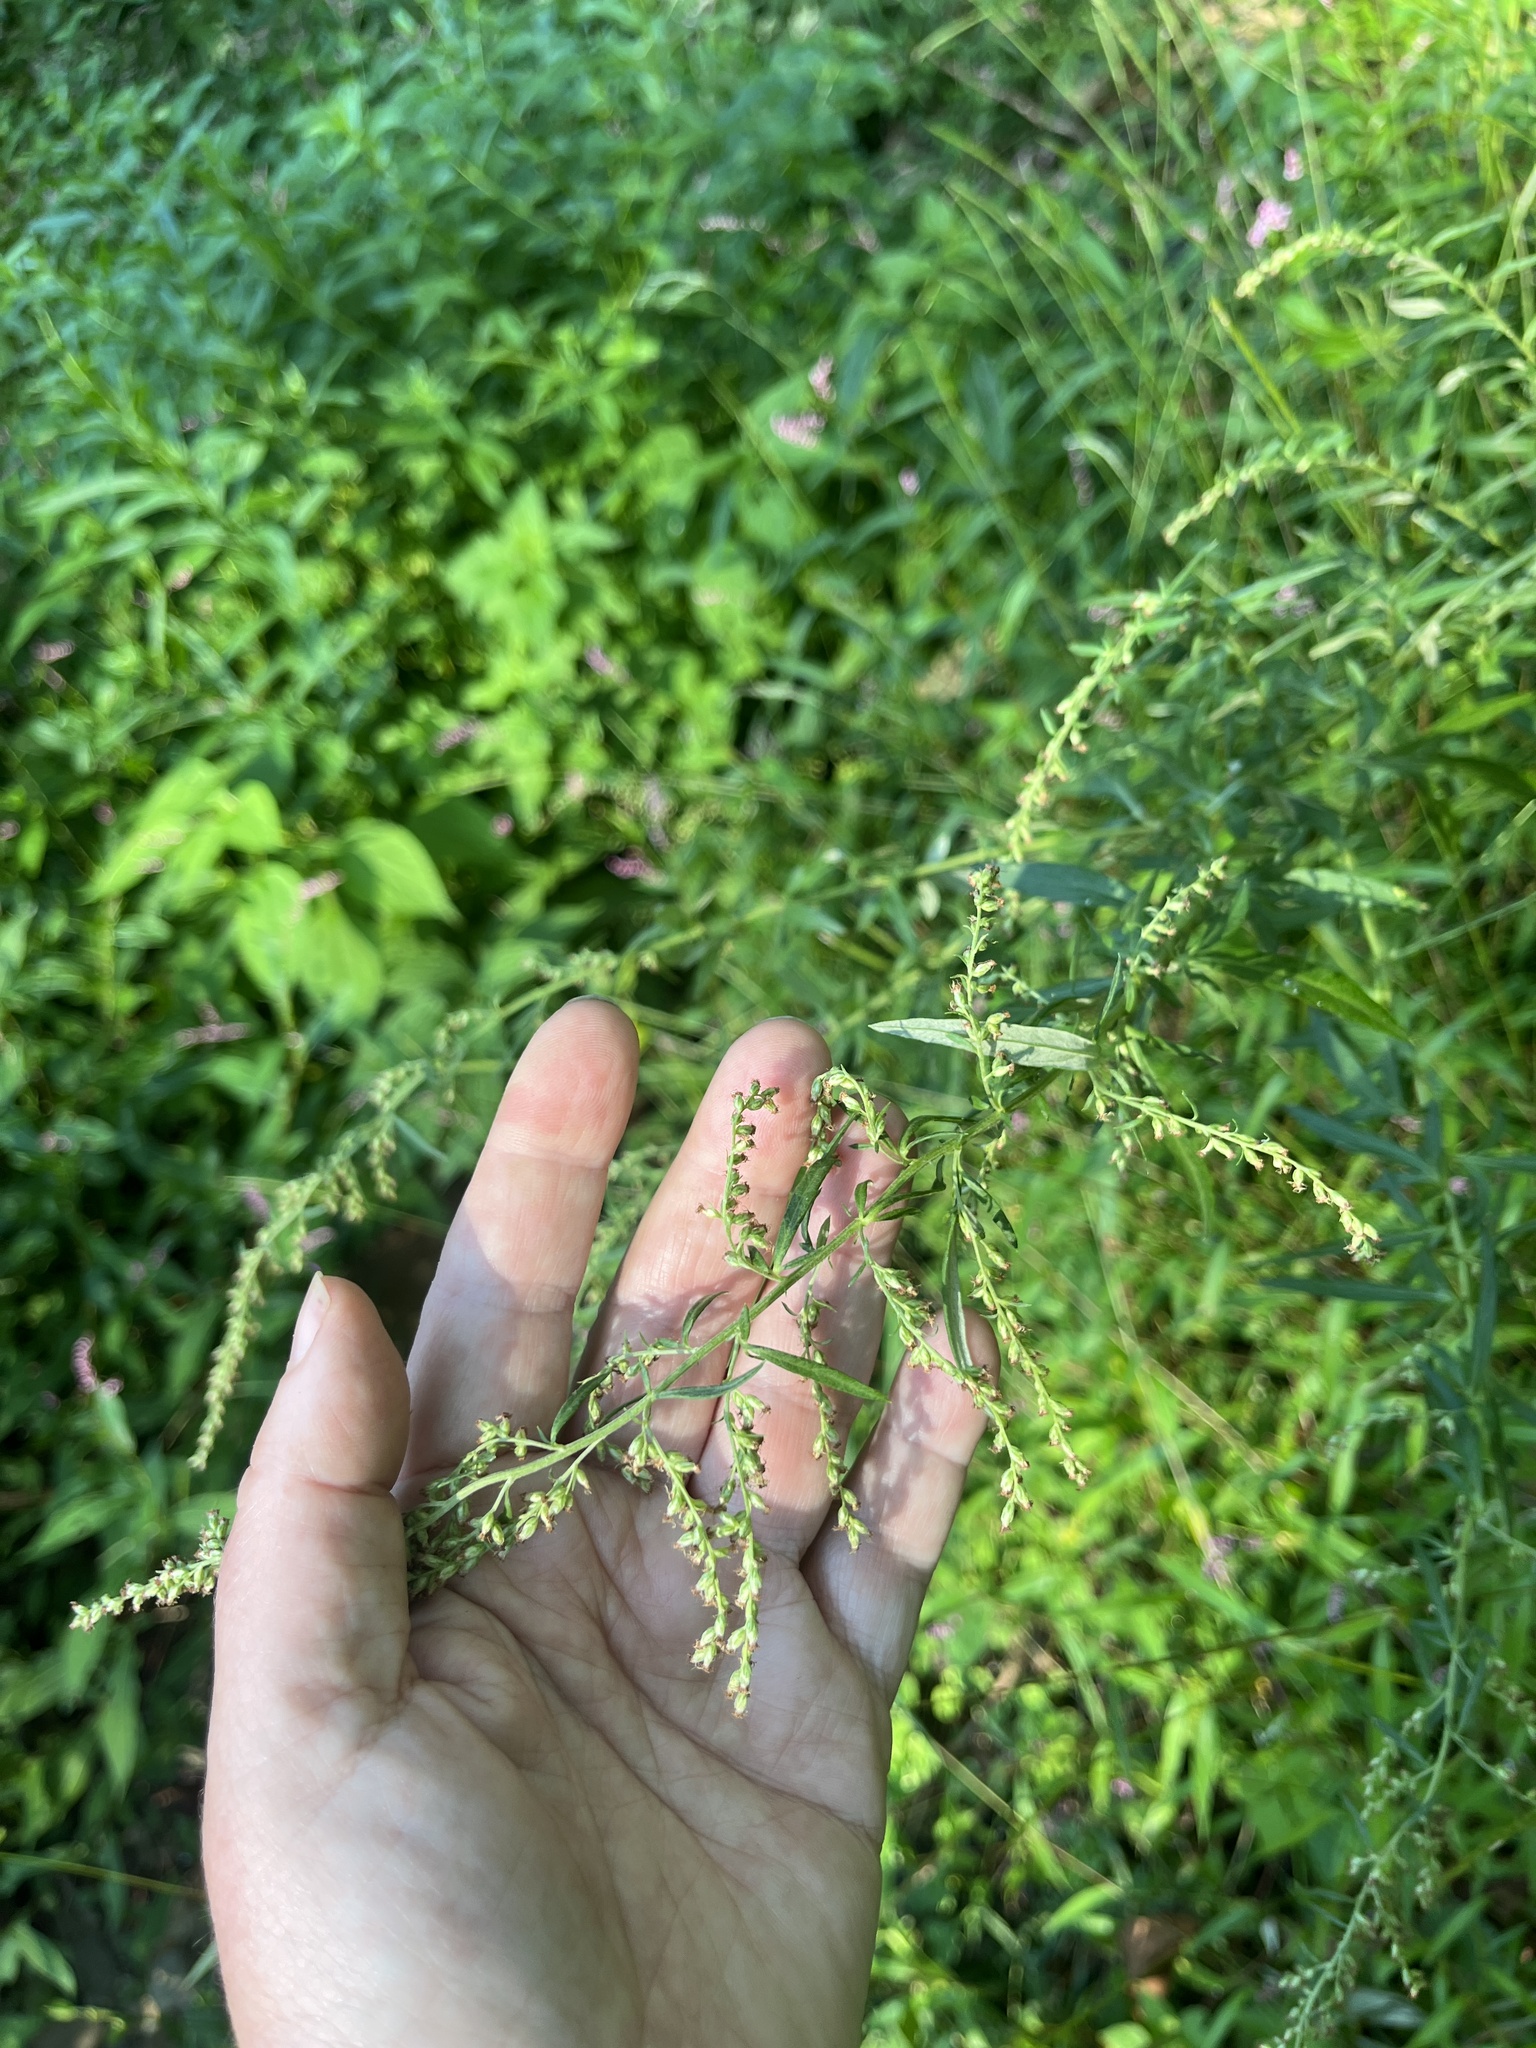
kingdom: Plantae
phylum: Tracheophyta
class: Magnoliopsida
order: Asterales
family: Asteraceae
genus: Artemisia
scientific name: Artemisia vulgaris
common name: Mugwort
